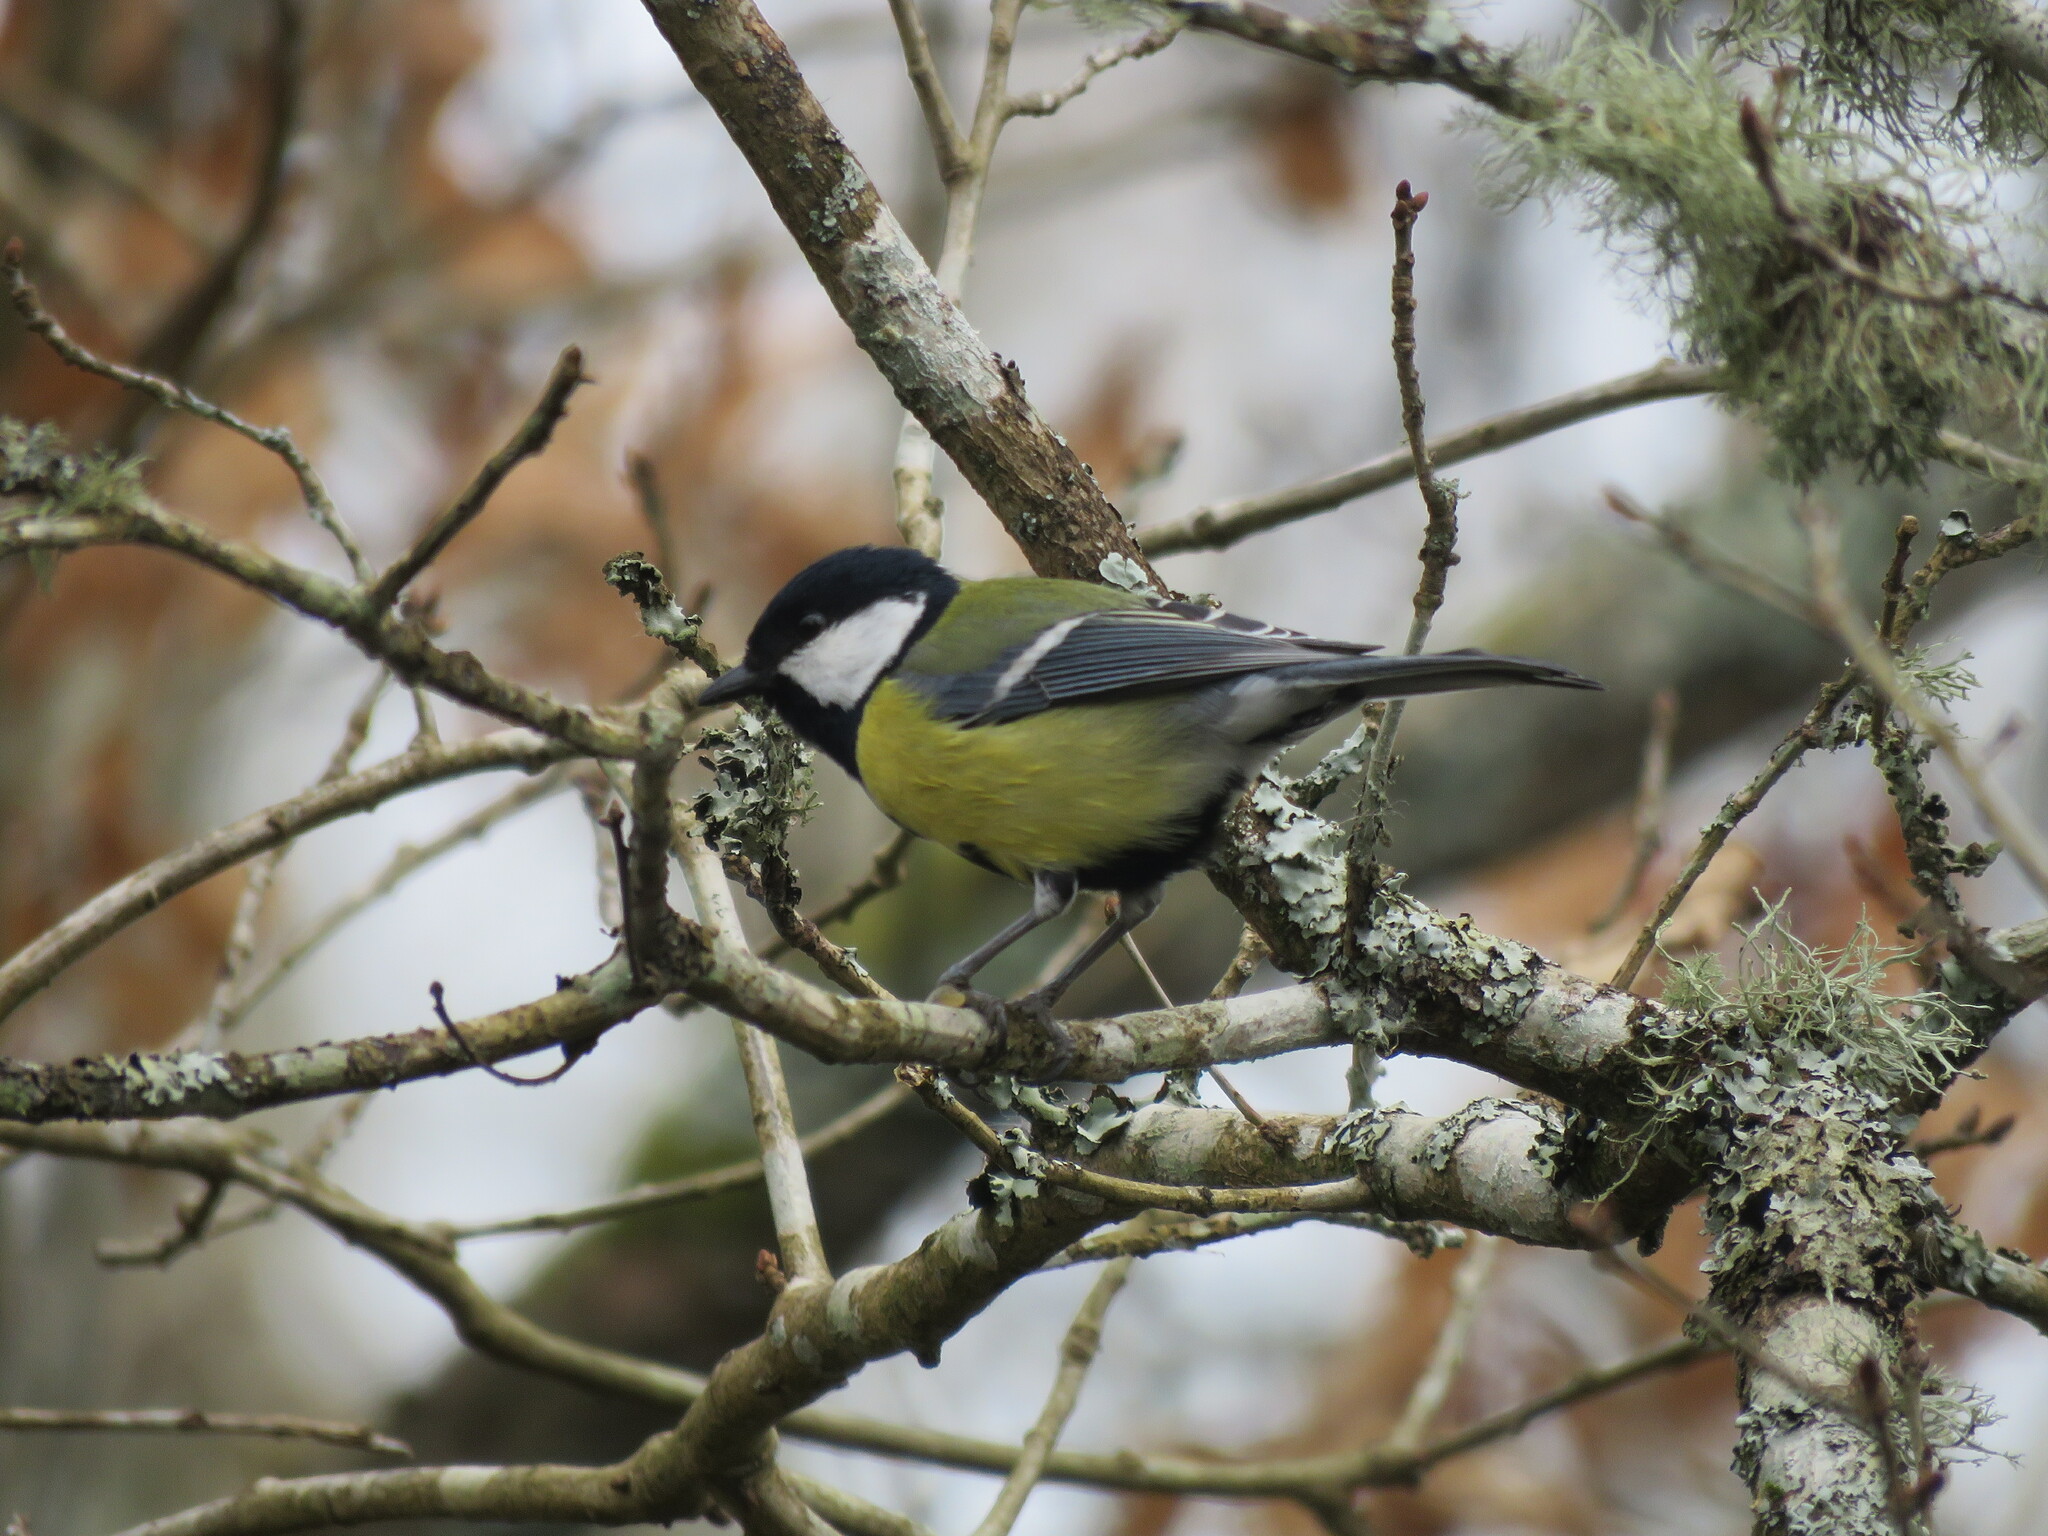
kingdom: Animalia
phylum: Chordata
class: Aves
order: Passeriformes
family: Paridae
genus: Parus
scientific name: Parus major
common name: Great tit
